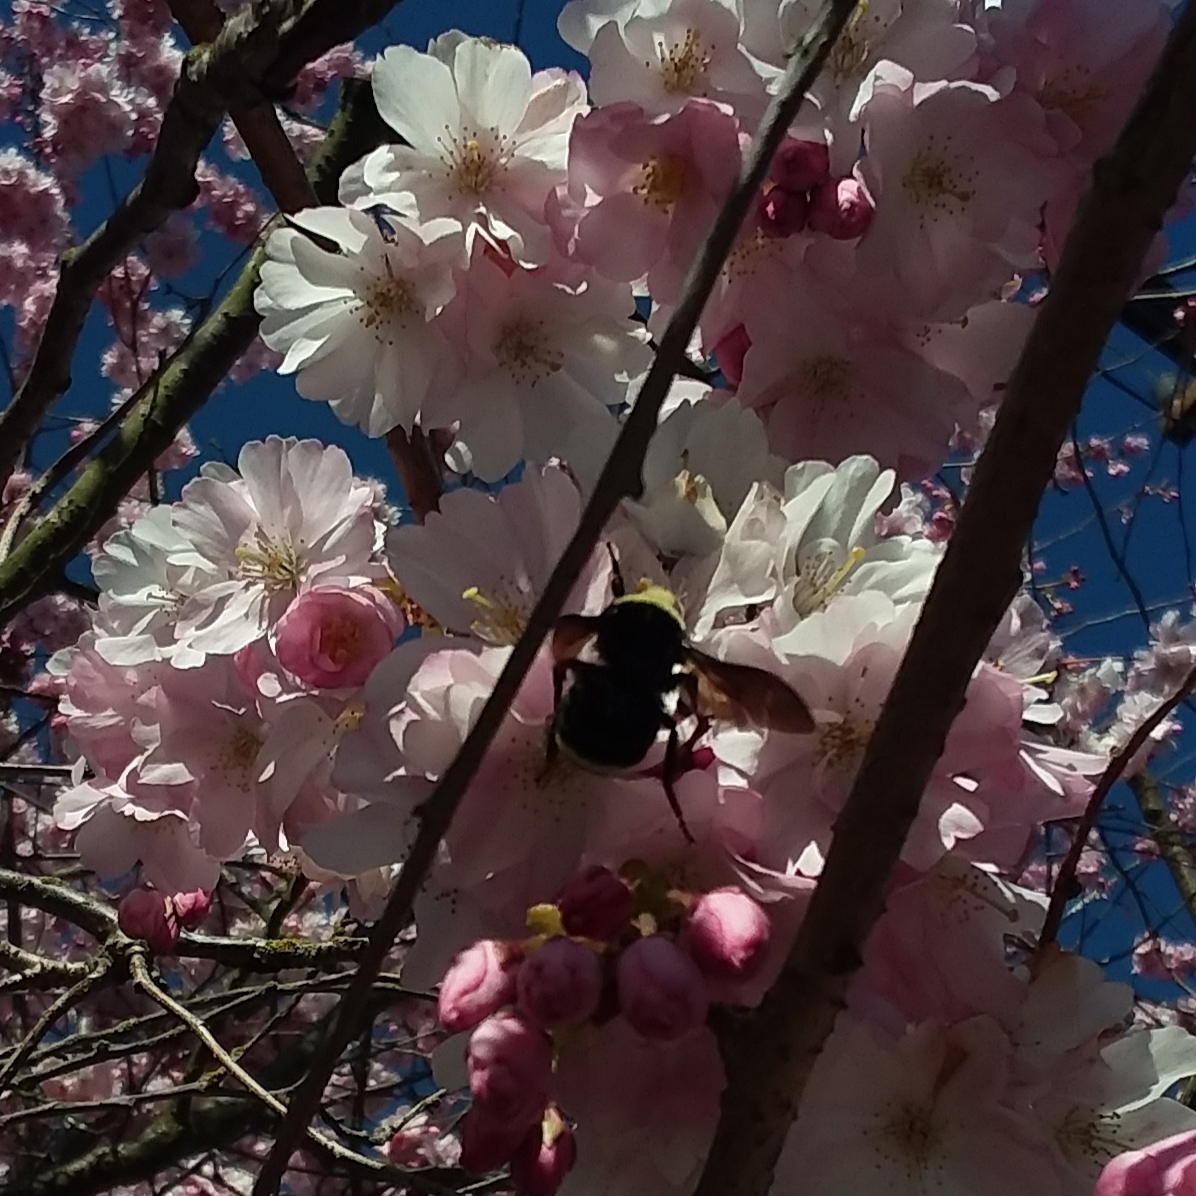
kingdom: Animalia
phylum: Arthropoda
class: Insecta
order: Hymenoptera
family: Apidae
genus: Pyrobombus
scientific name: Pyrobombus
